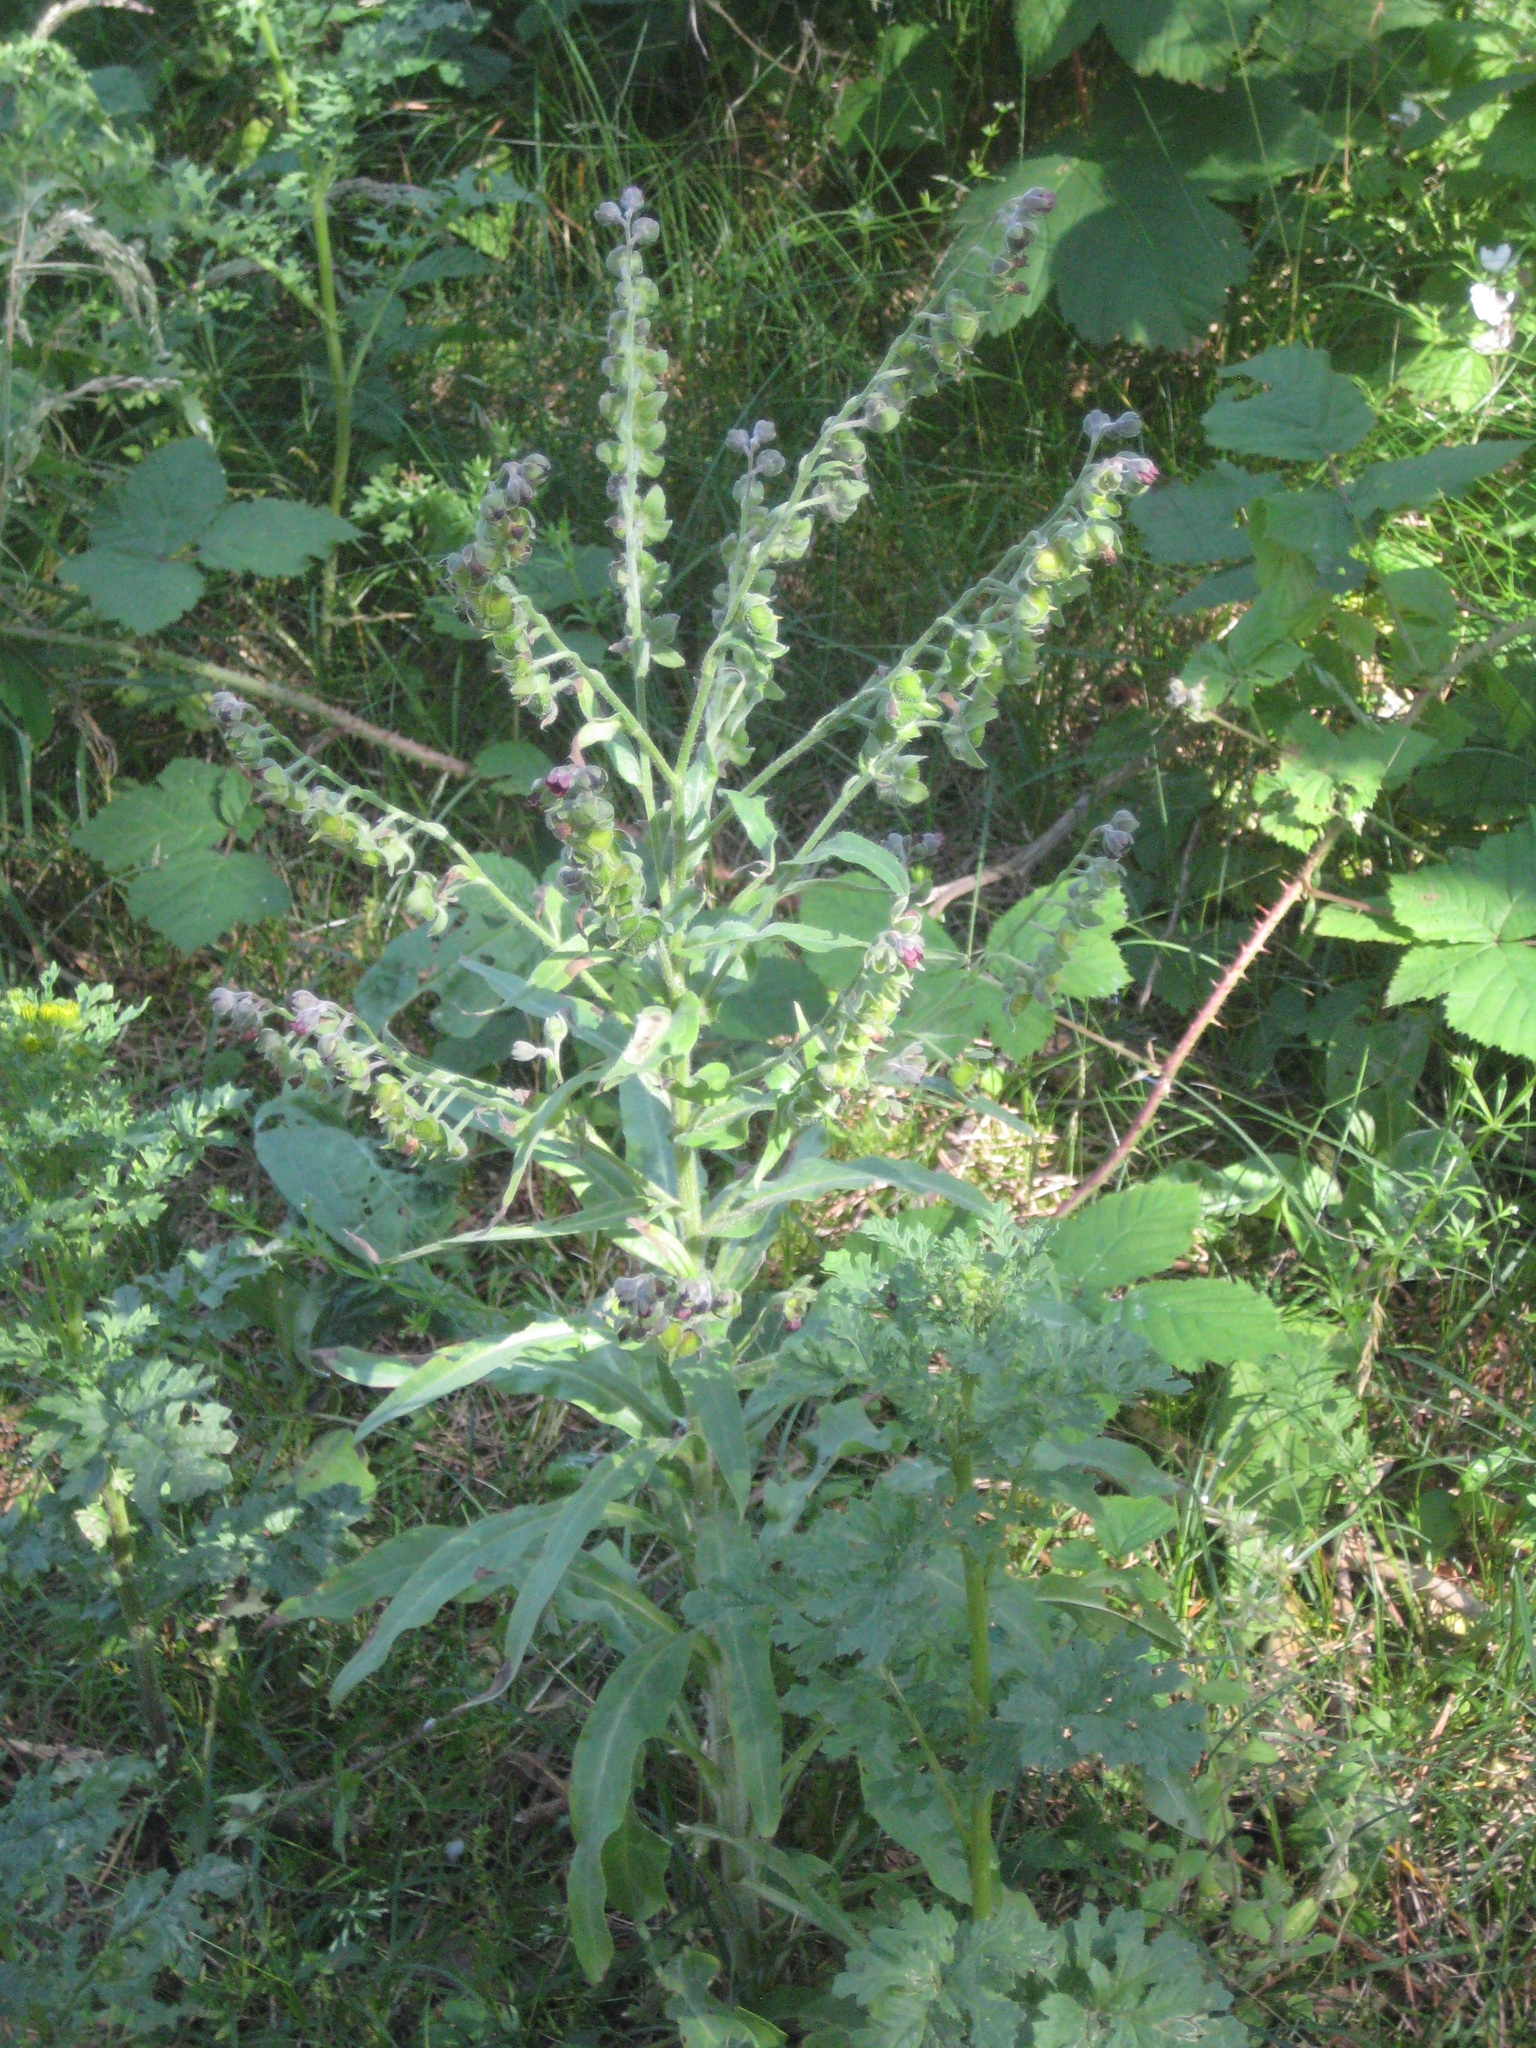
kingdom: Plantae
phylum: Tracheophyta
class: Magnoliopsida
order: Boraginales
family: Boraginaceae
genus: Cynoglossum
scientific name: Cynoglossum officinale
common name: Hound's-tongue
